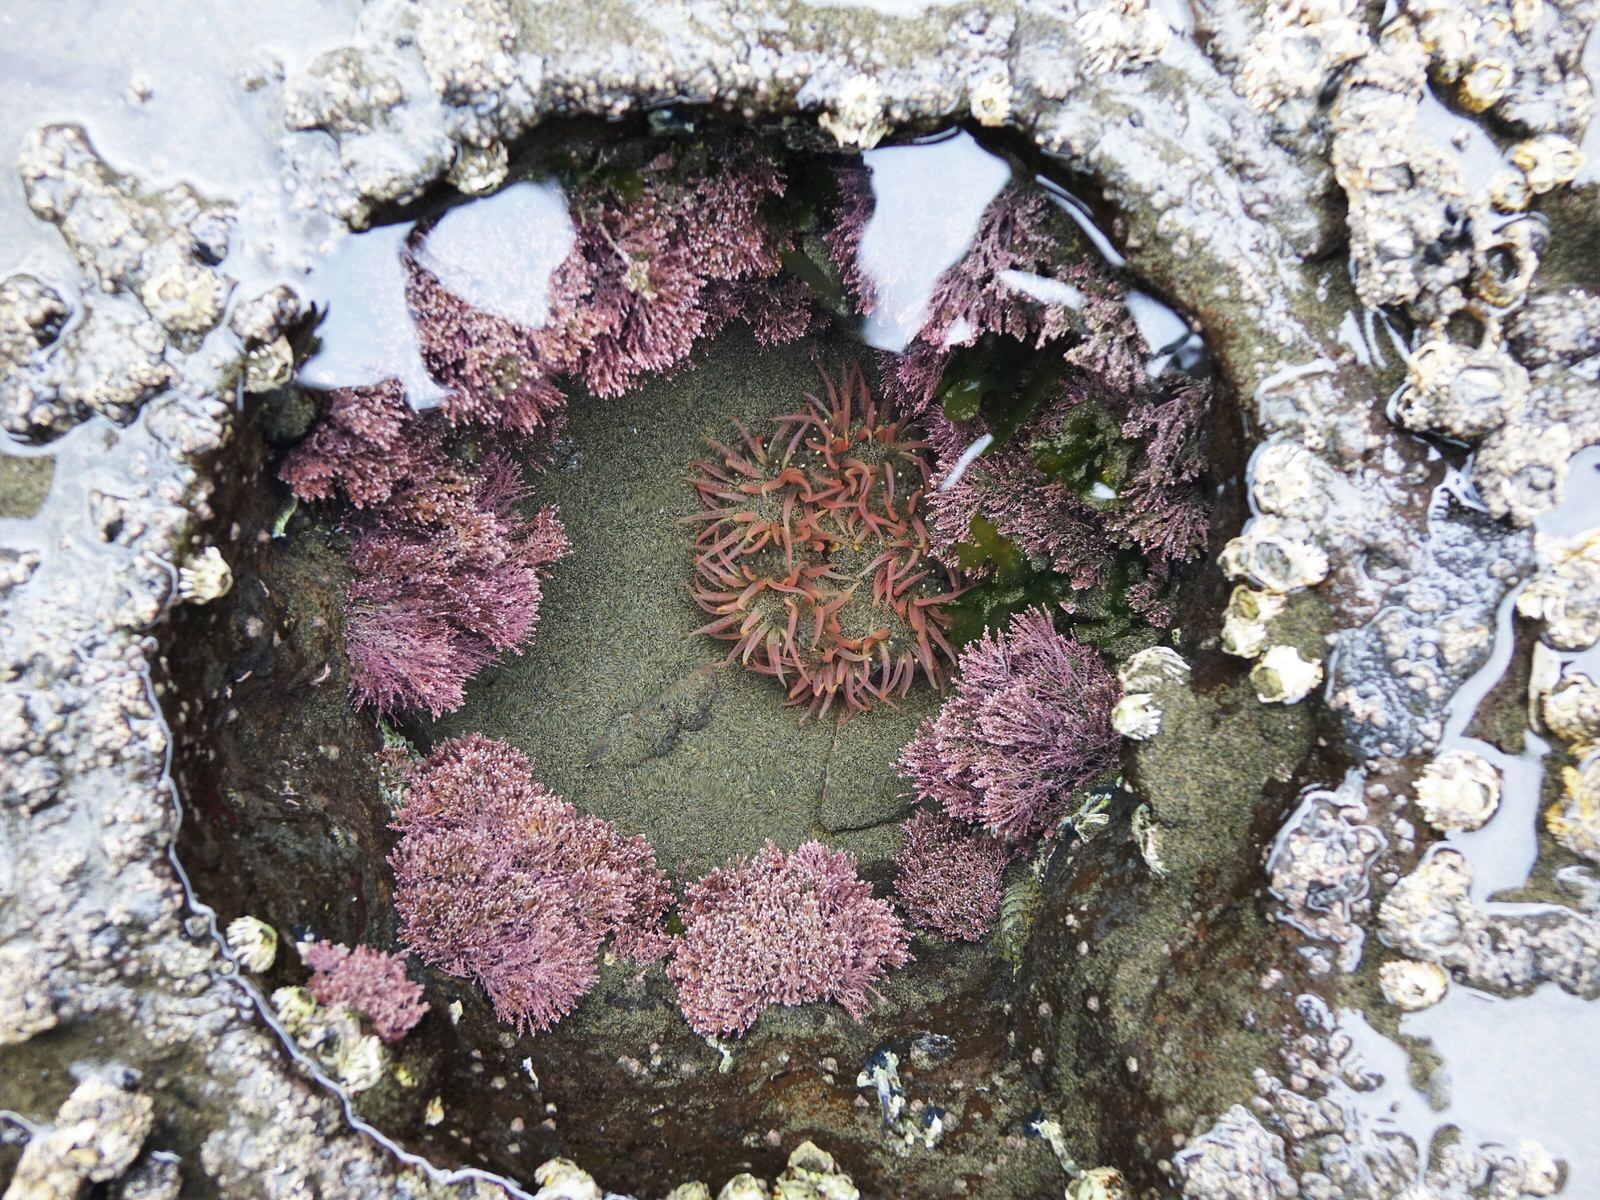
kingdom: Animalia
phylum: Cnidaria
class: Anthozoa
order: Actiniaria
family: Actiniidae
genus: Oulactis
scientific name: Oulactis magna
